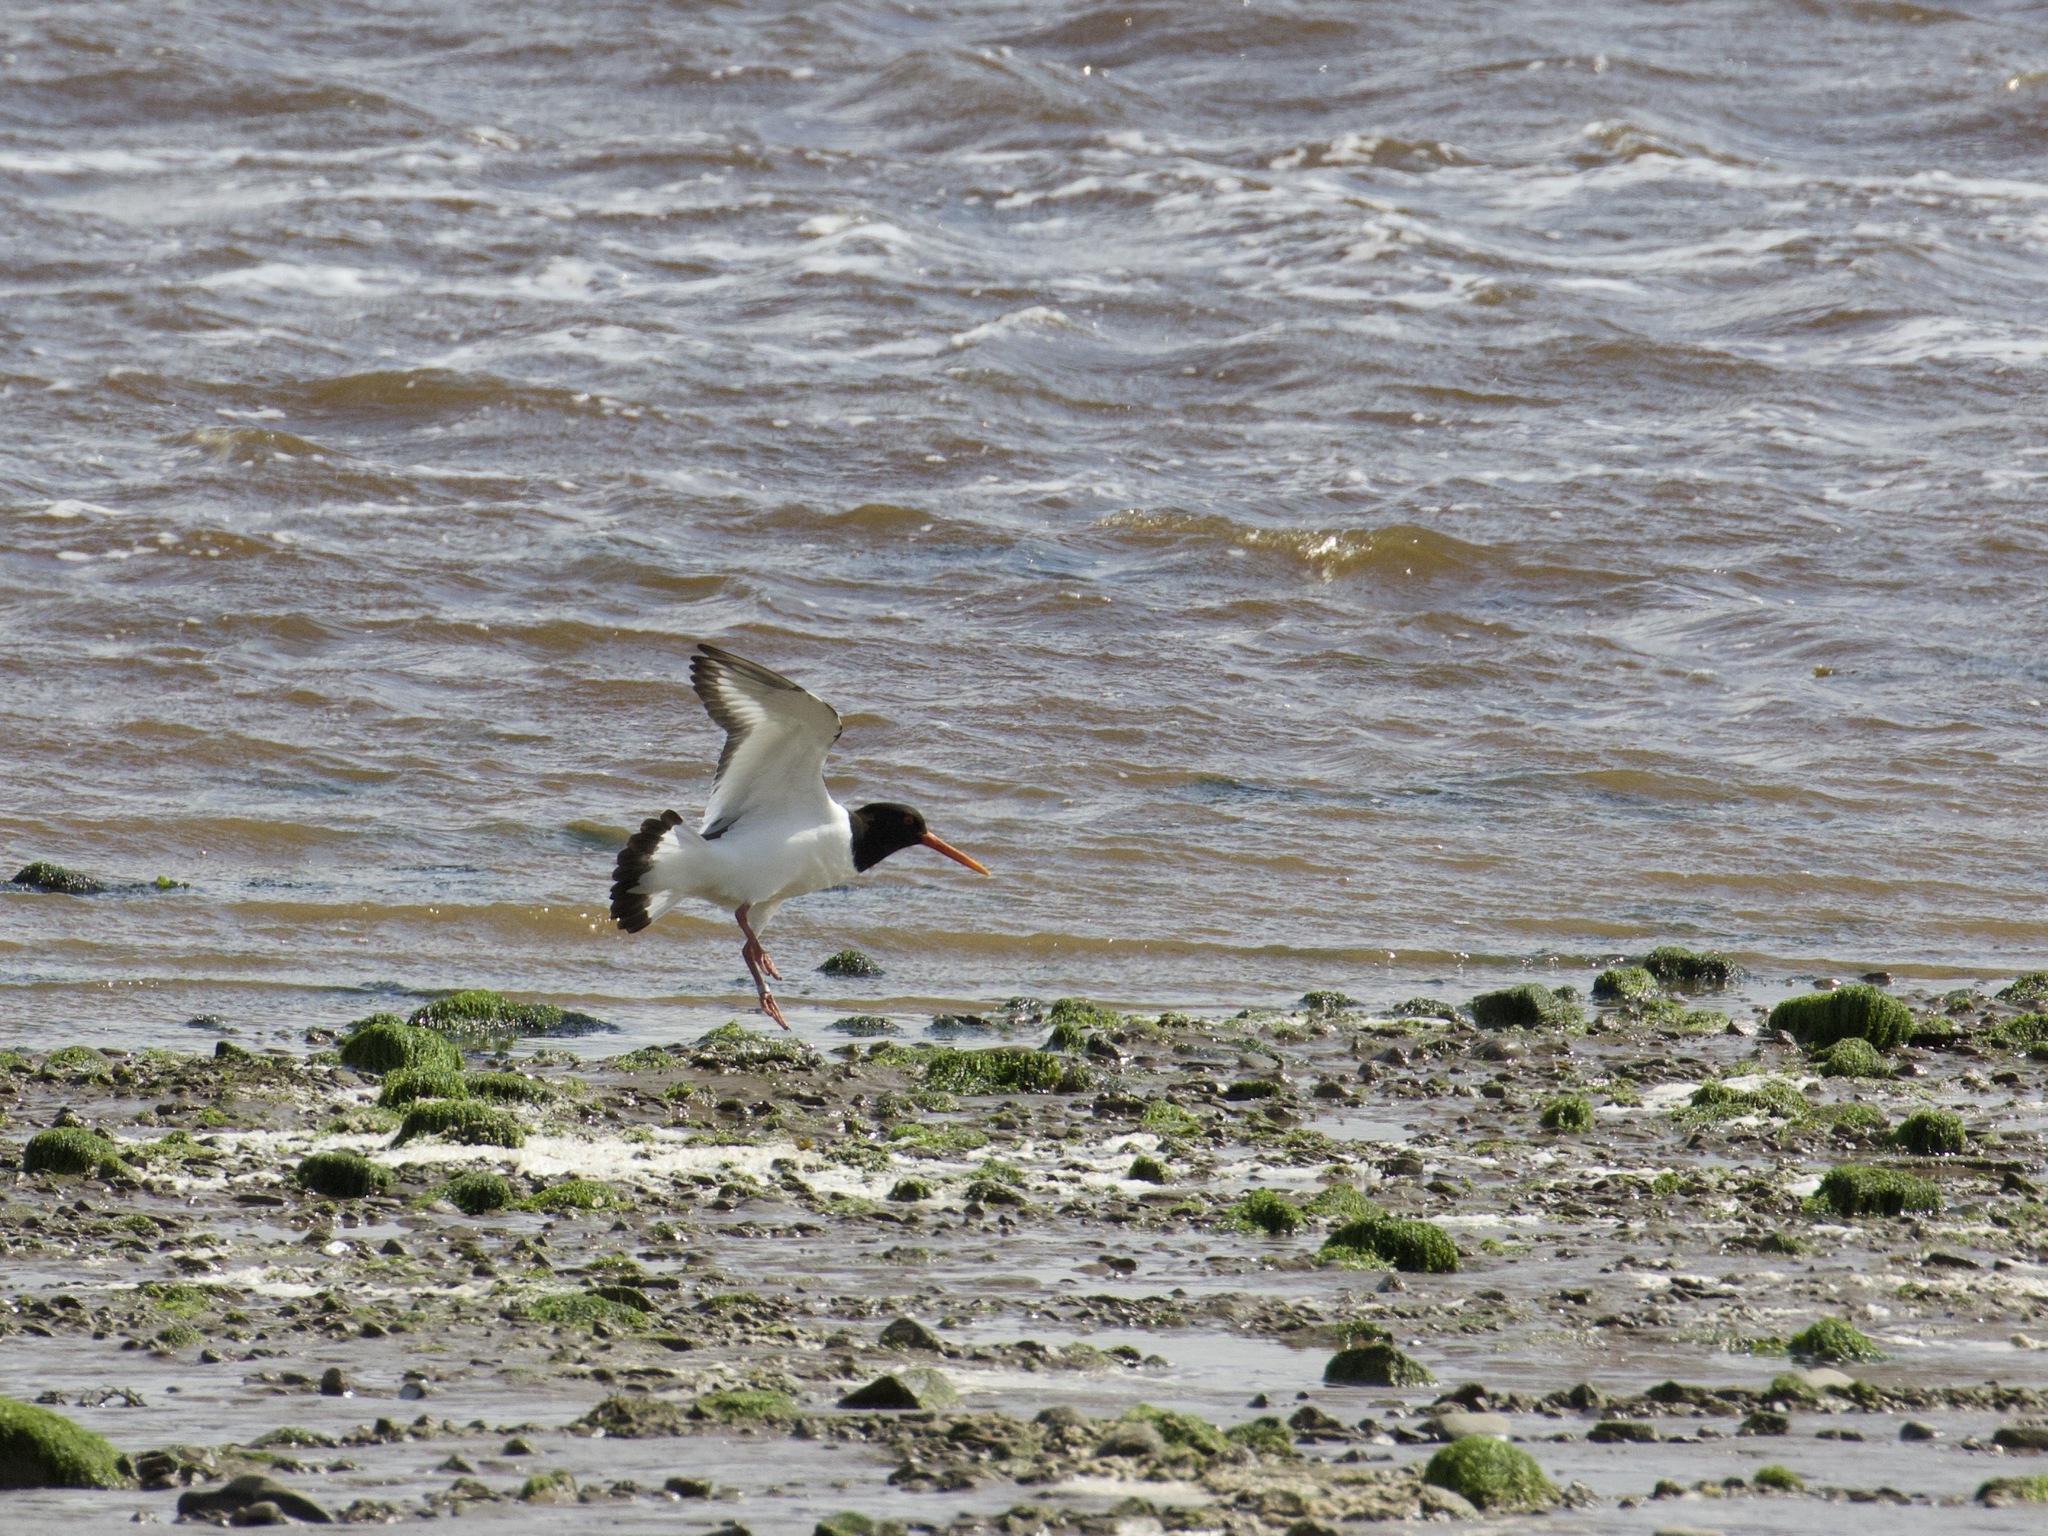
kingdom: Animalia
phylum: Chordata
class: Aves
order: Charadriiformes
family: Haematopodidae
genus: Haematopus
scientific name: Haematopus ostralegus
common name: Eurasian oystercatcher
